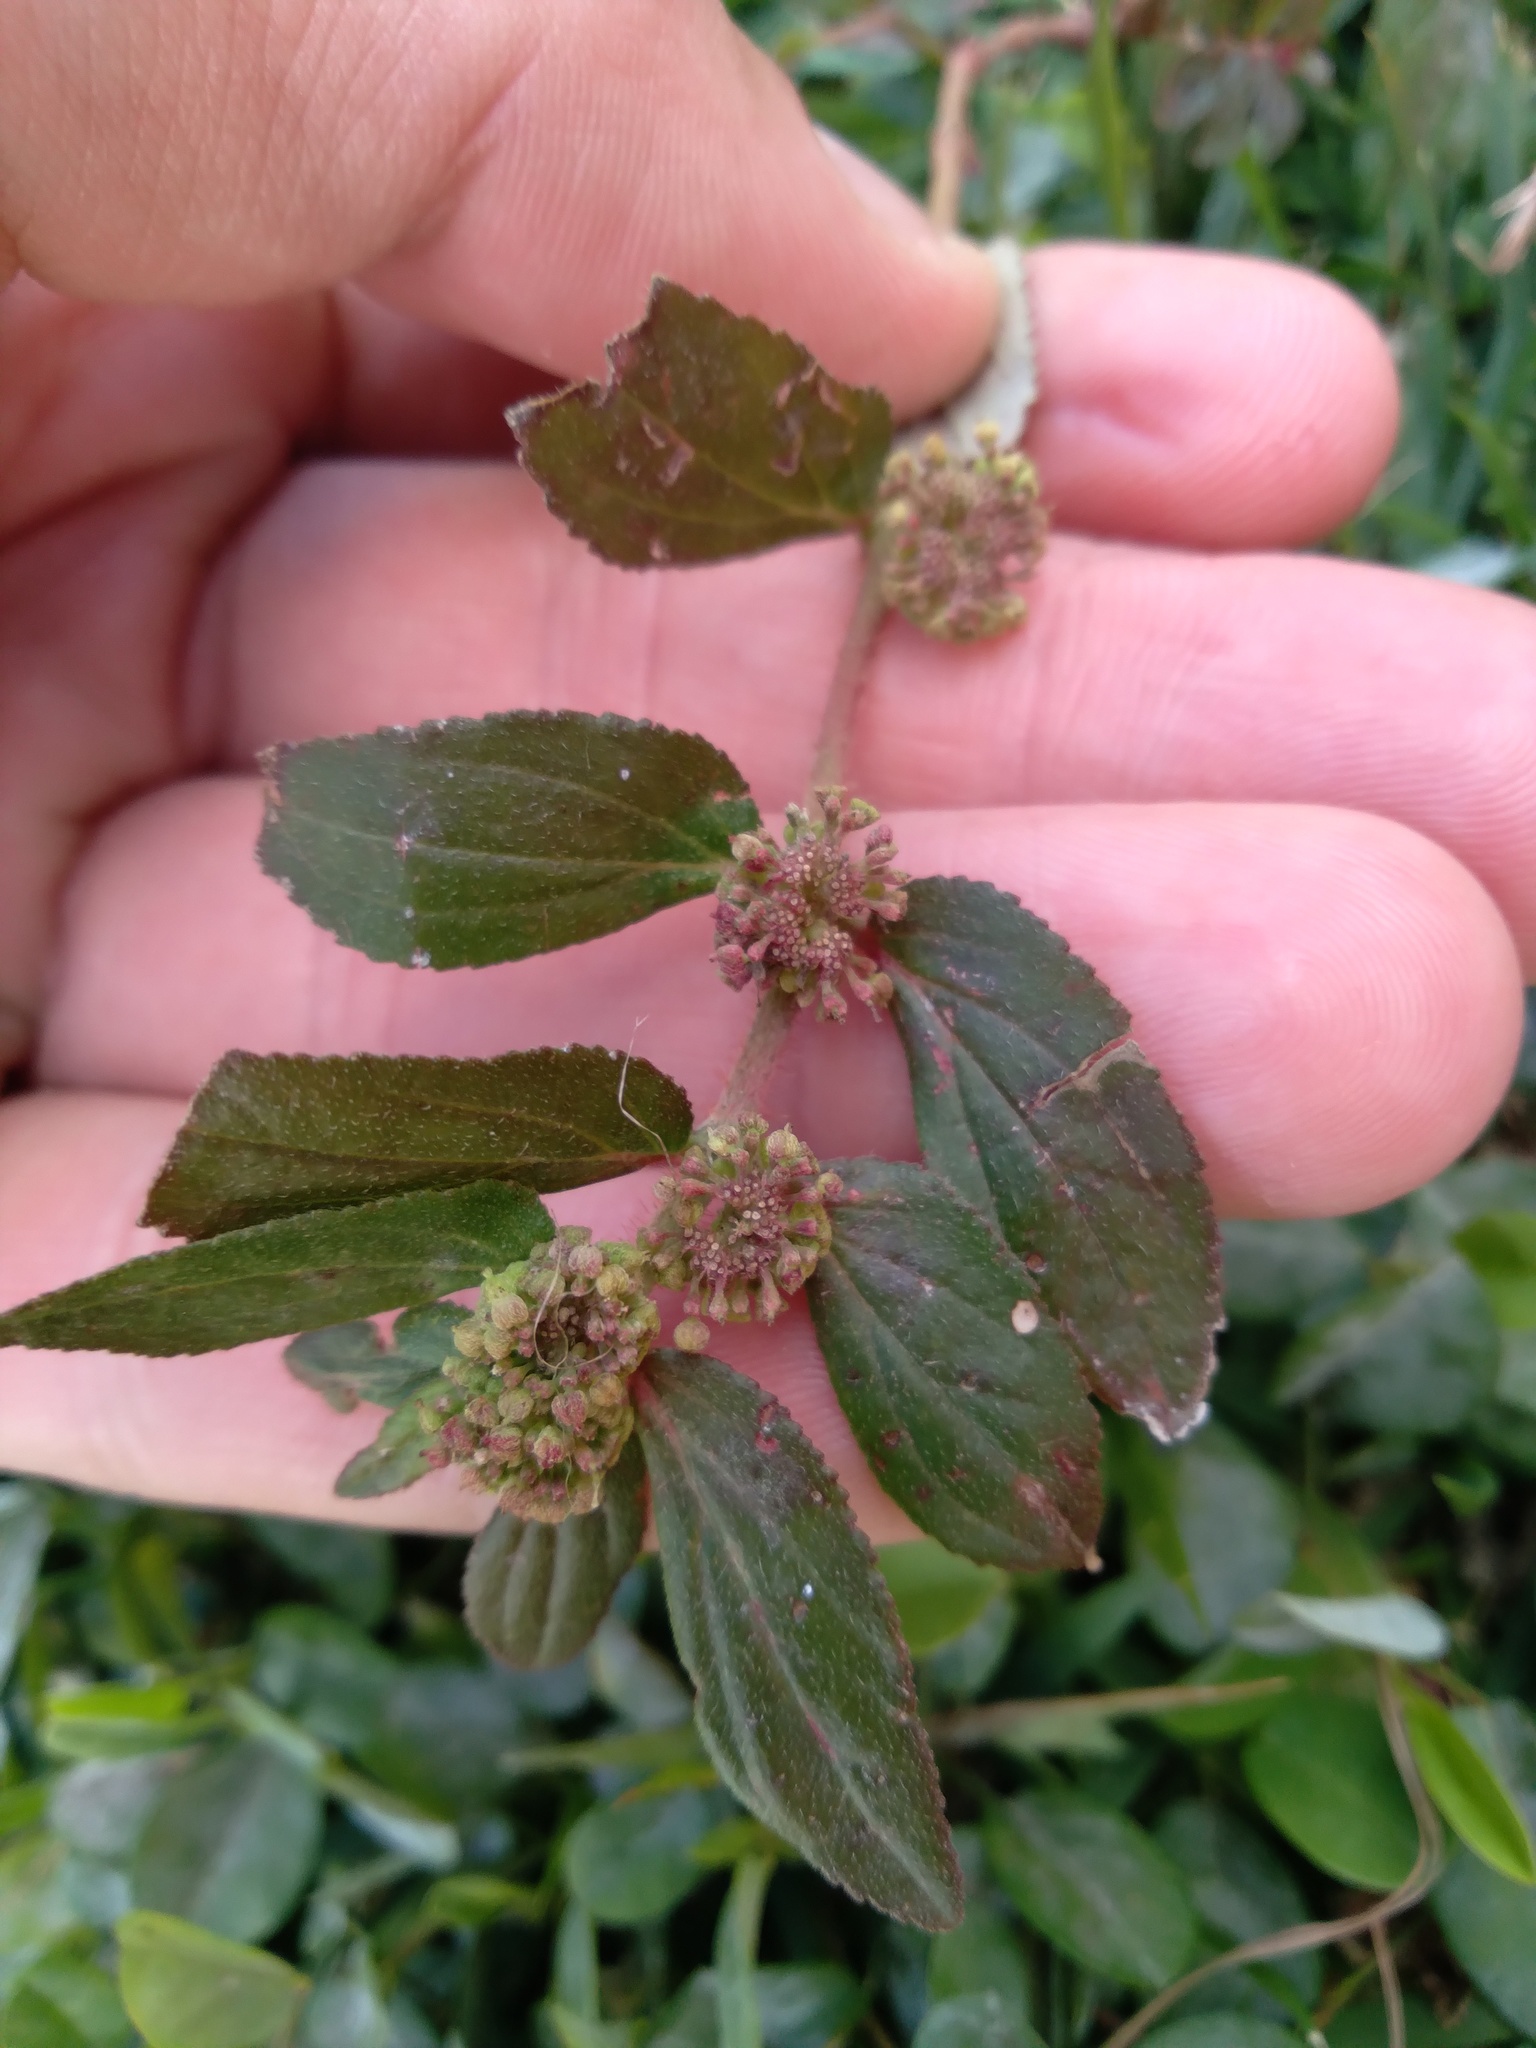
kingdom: Plantae
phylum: Tracheophyta
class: Magnoliopsida
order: Malpighiales
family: Euphorbiaceae
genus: Euphorbia
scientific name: Euphorbia hirta
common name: Pillpod sandmat
